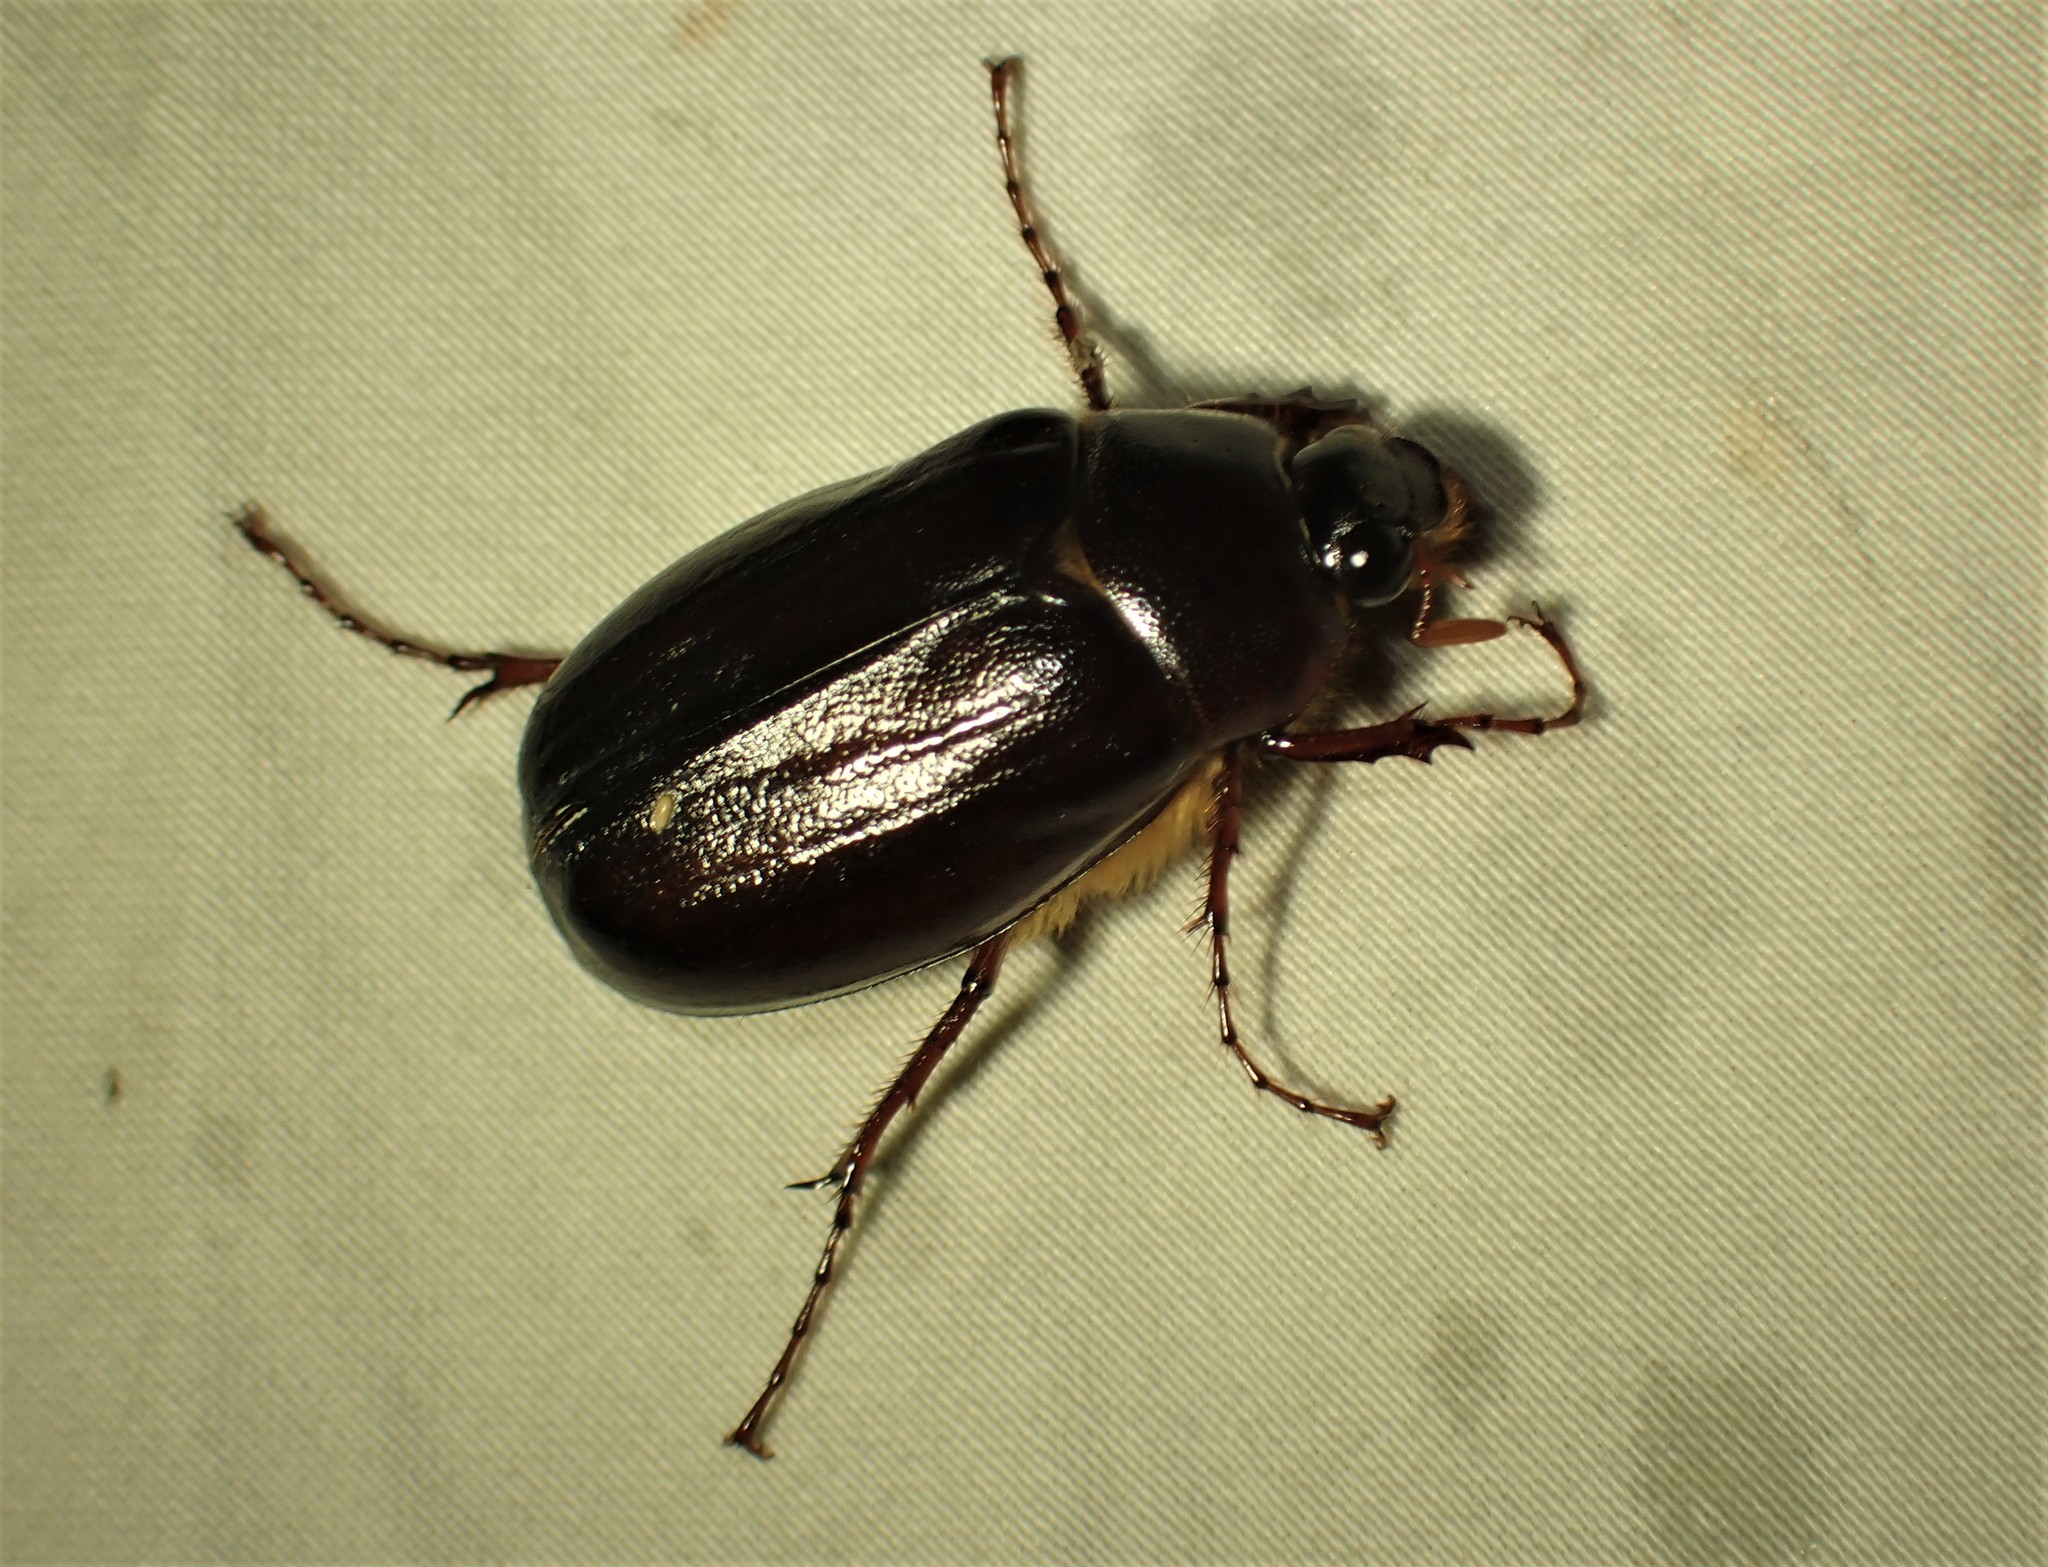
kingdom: Animalia
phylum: Arthropoda
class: Insecta
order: Coleoptera
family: Scarabaeidae
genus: Phyllophaga
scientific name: Phyllophaga
